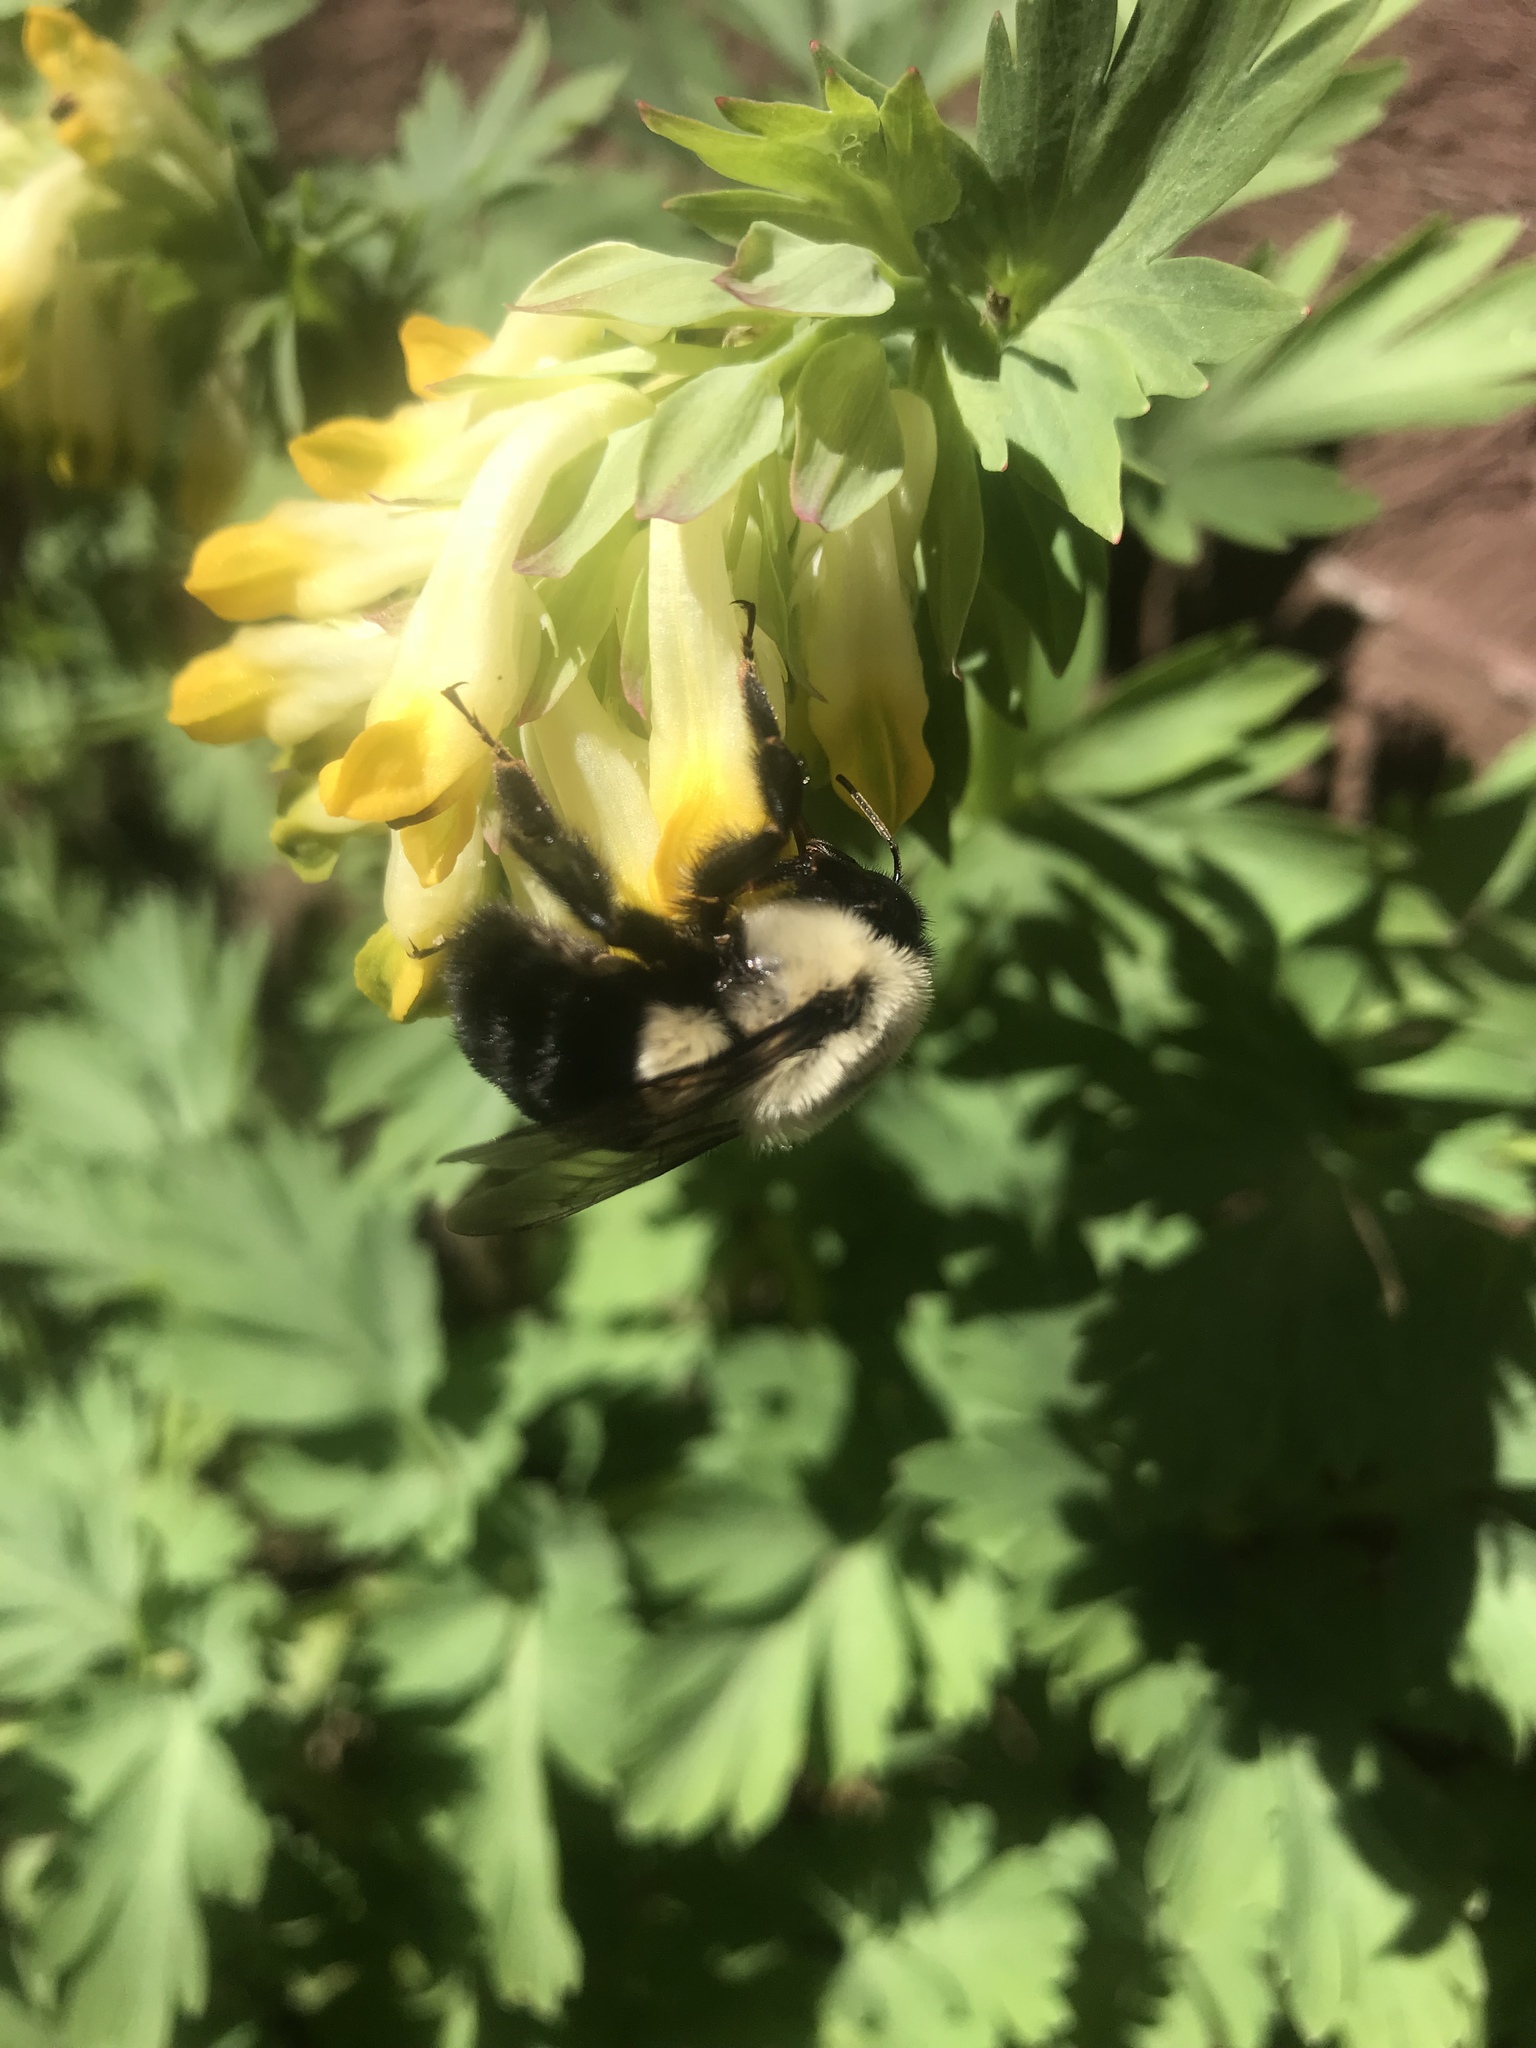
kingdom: Animalia
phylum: Arthropoda
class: Insecta
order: Hymenoptera
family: Apidae
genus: Bombus
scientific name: Bombus impatiens
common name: Common eastern bumble bee
